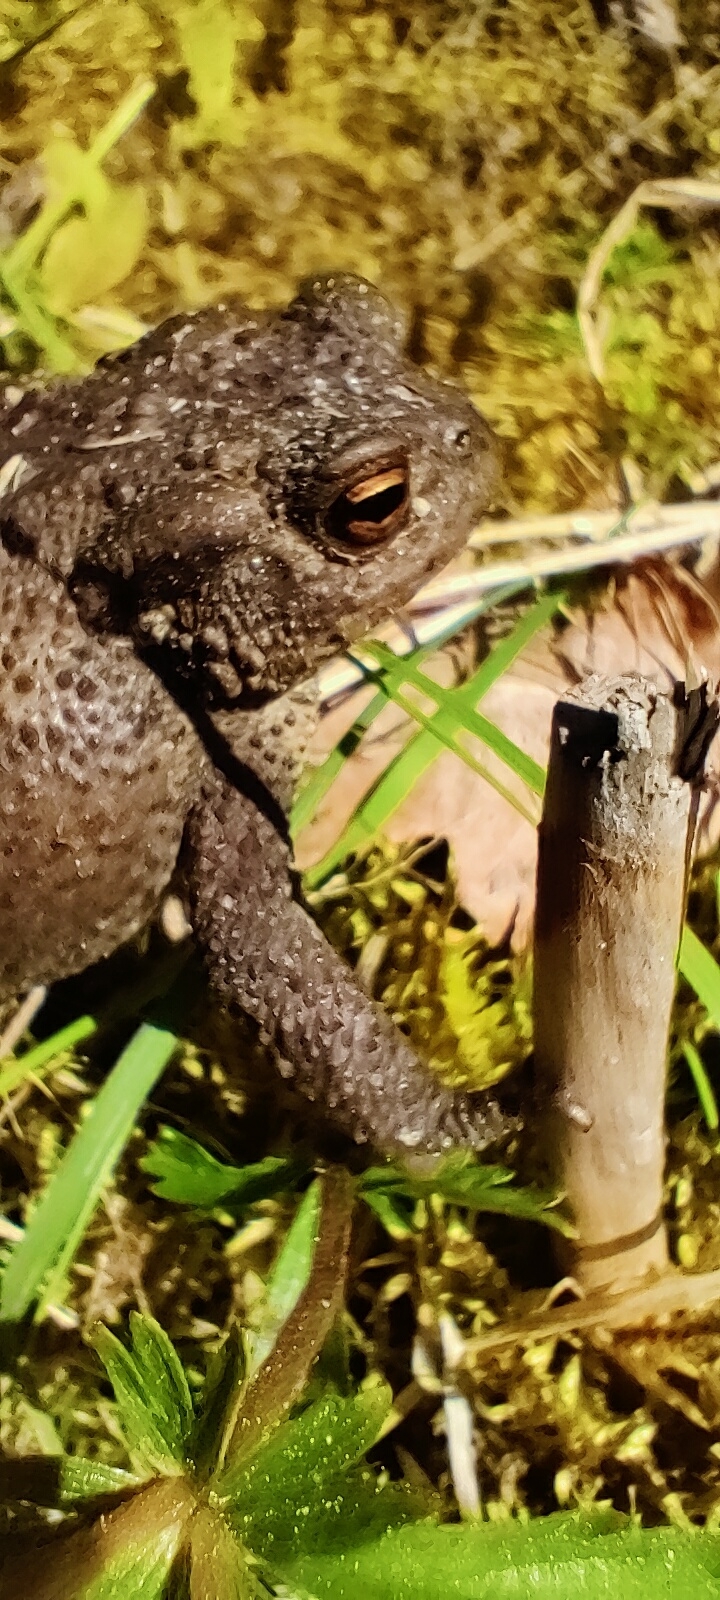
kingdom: Animalia
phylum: Chordata
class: Amphibia
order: Anura
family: Bufonidae
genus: Bufo
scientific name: Bufo bufo
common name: Common toad
